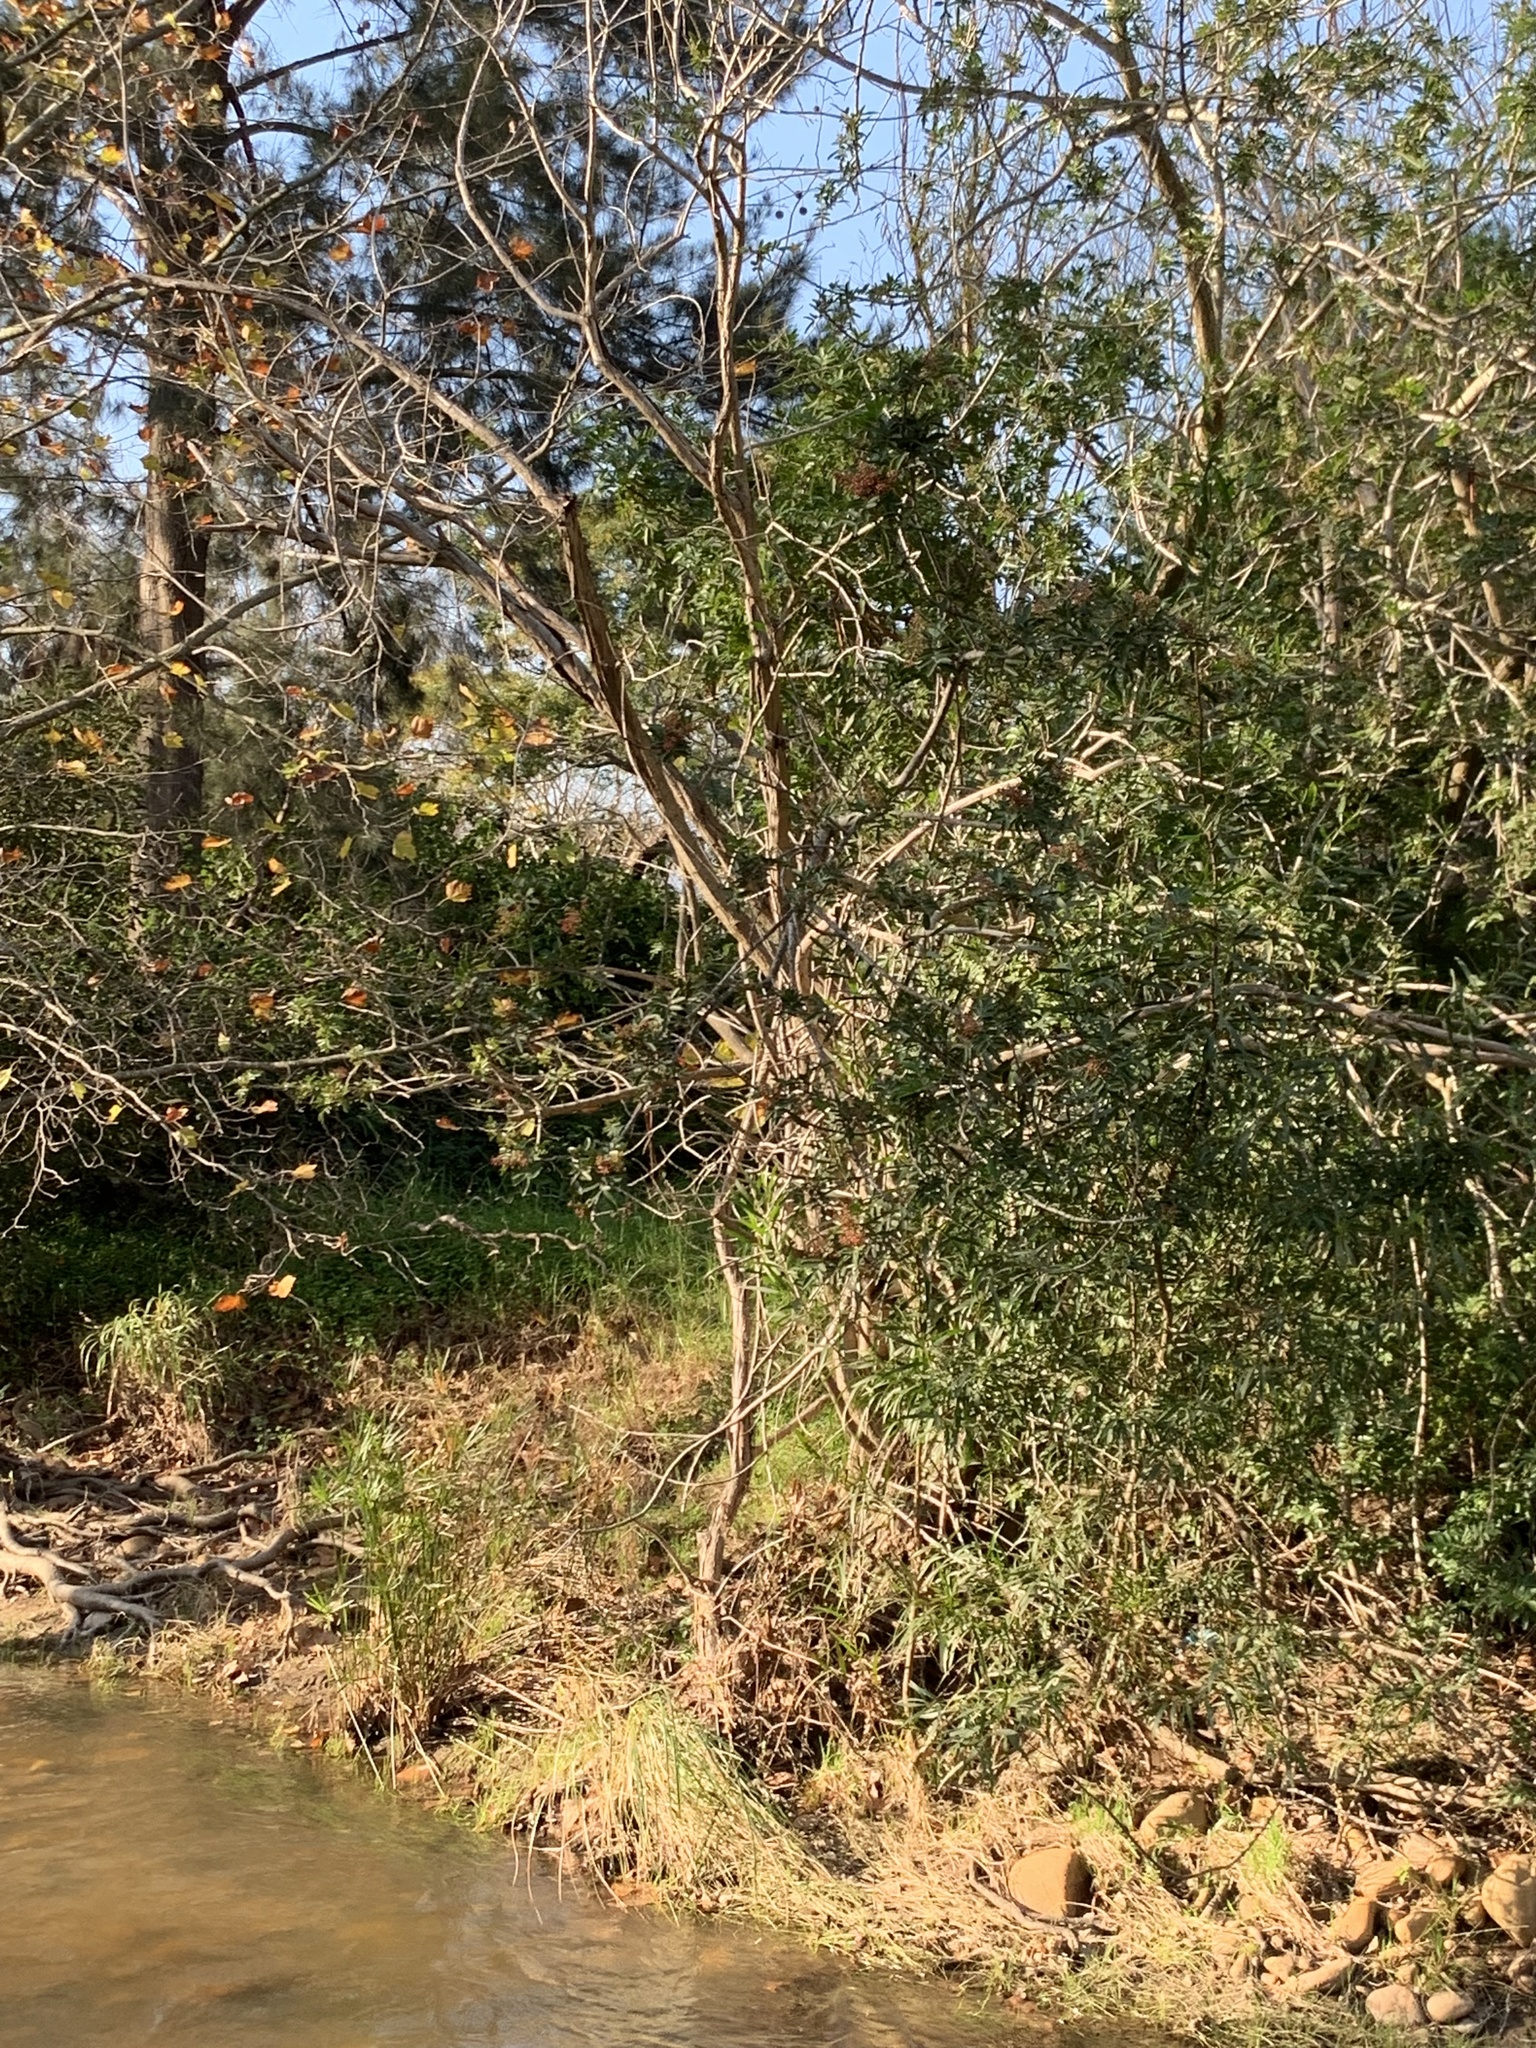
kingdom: Plantae
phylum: Tracheophyta
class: Magnoliopsida
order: Sapindales
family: Anacardiaceae
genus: Schinus
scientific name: Schinus terebinthifolia
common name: Brazilian peppertree
